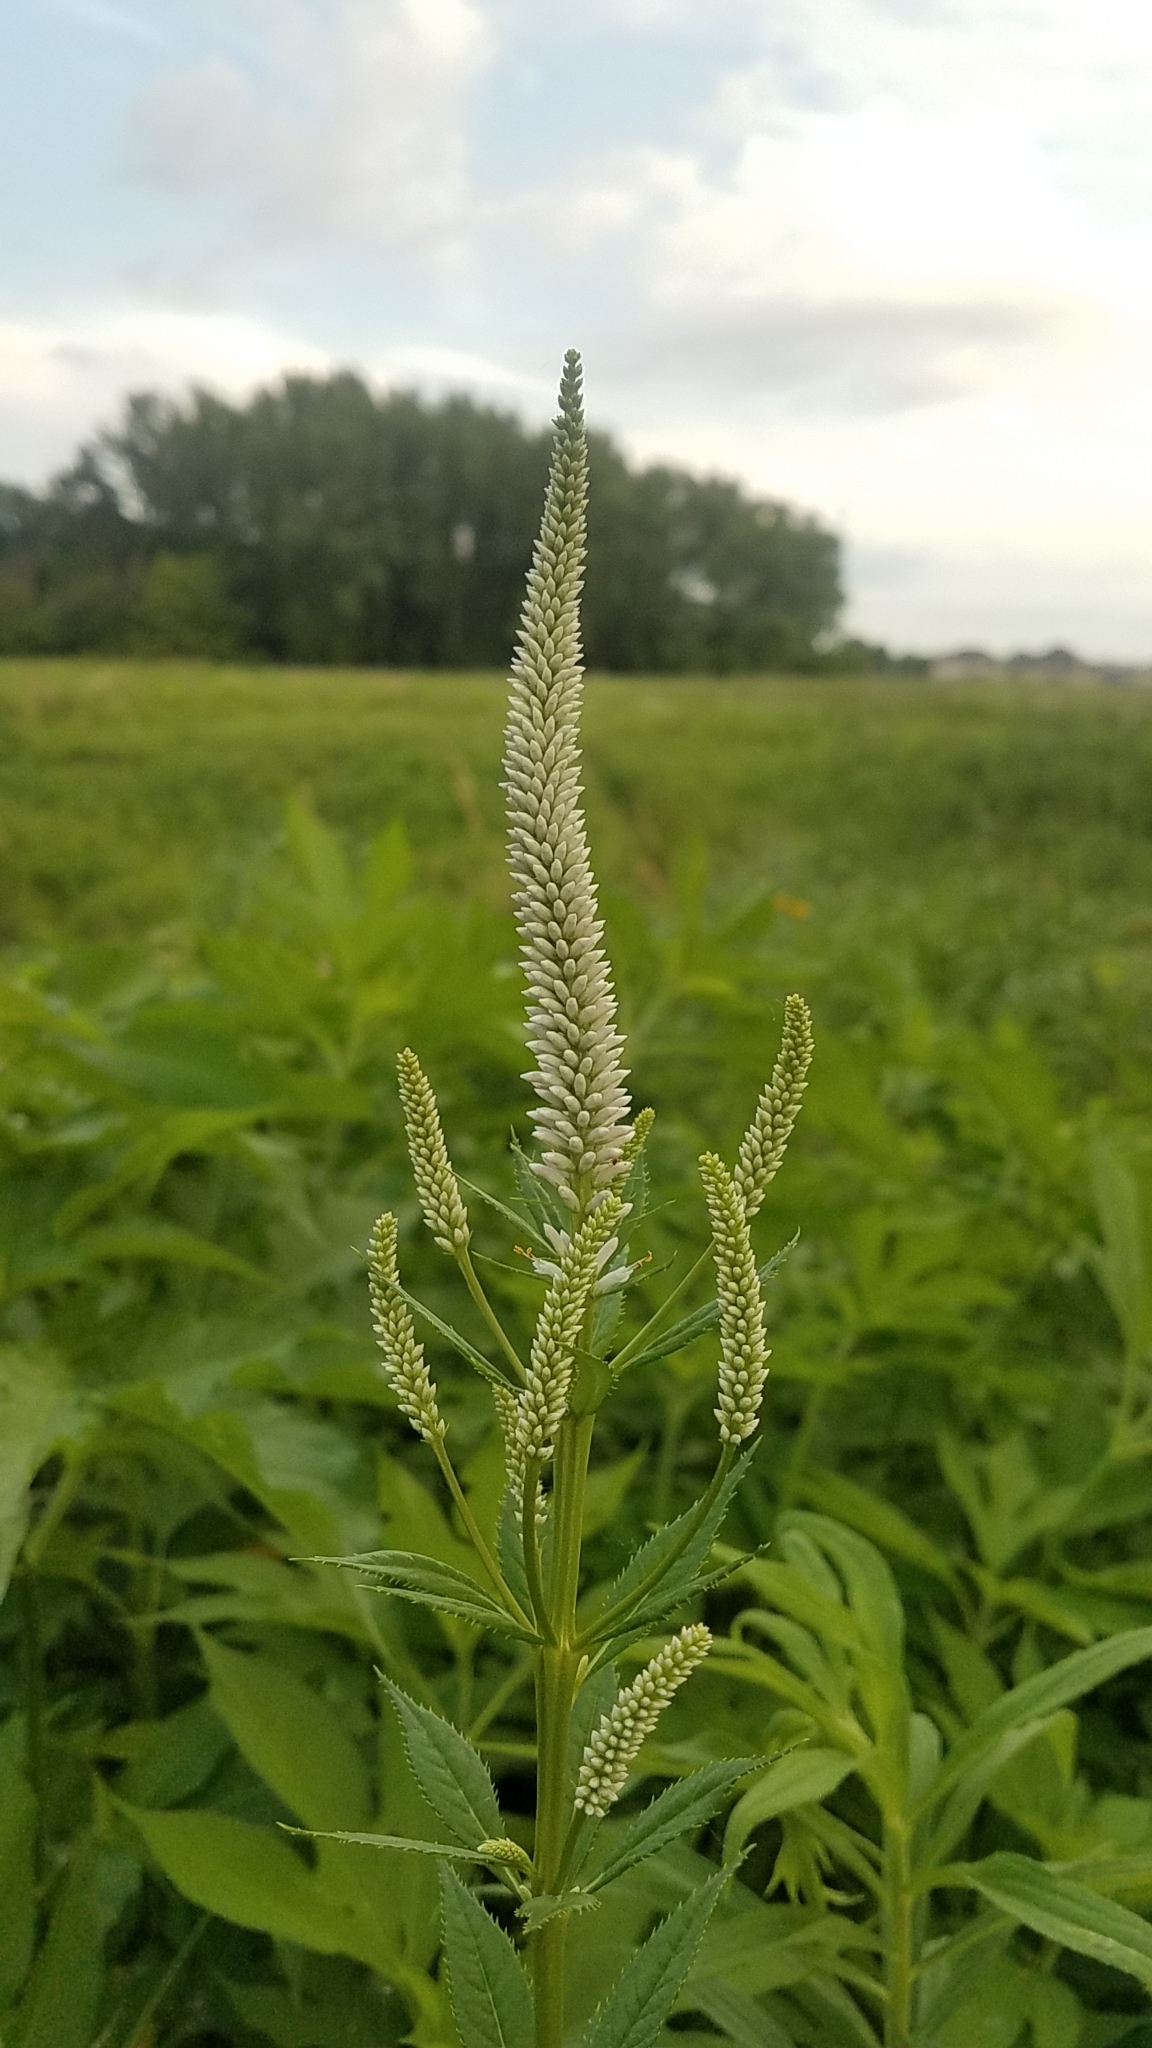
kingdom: Plantae
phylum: Tracheophyta
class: Magnoliopsida
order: Lamiales
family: Plantaginaceae
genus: Veronicastrum
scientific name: Veronicastrum virginicum
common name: Blackroot
